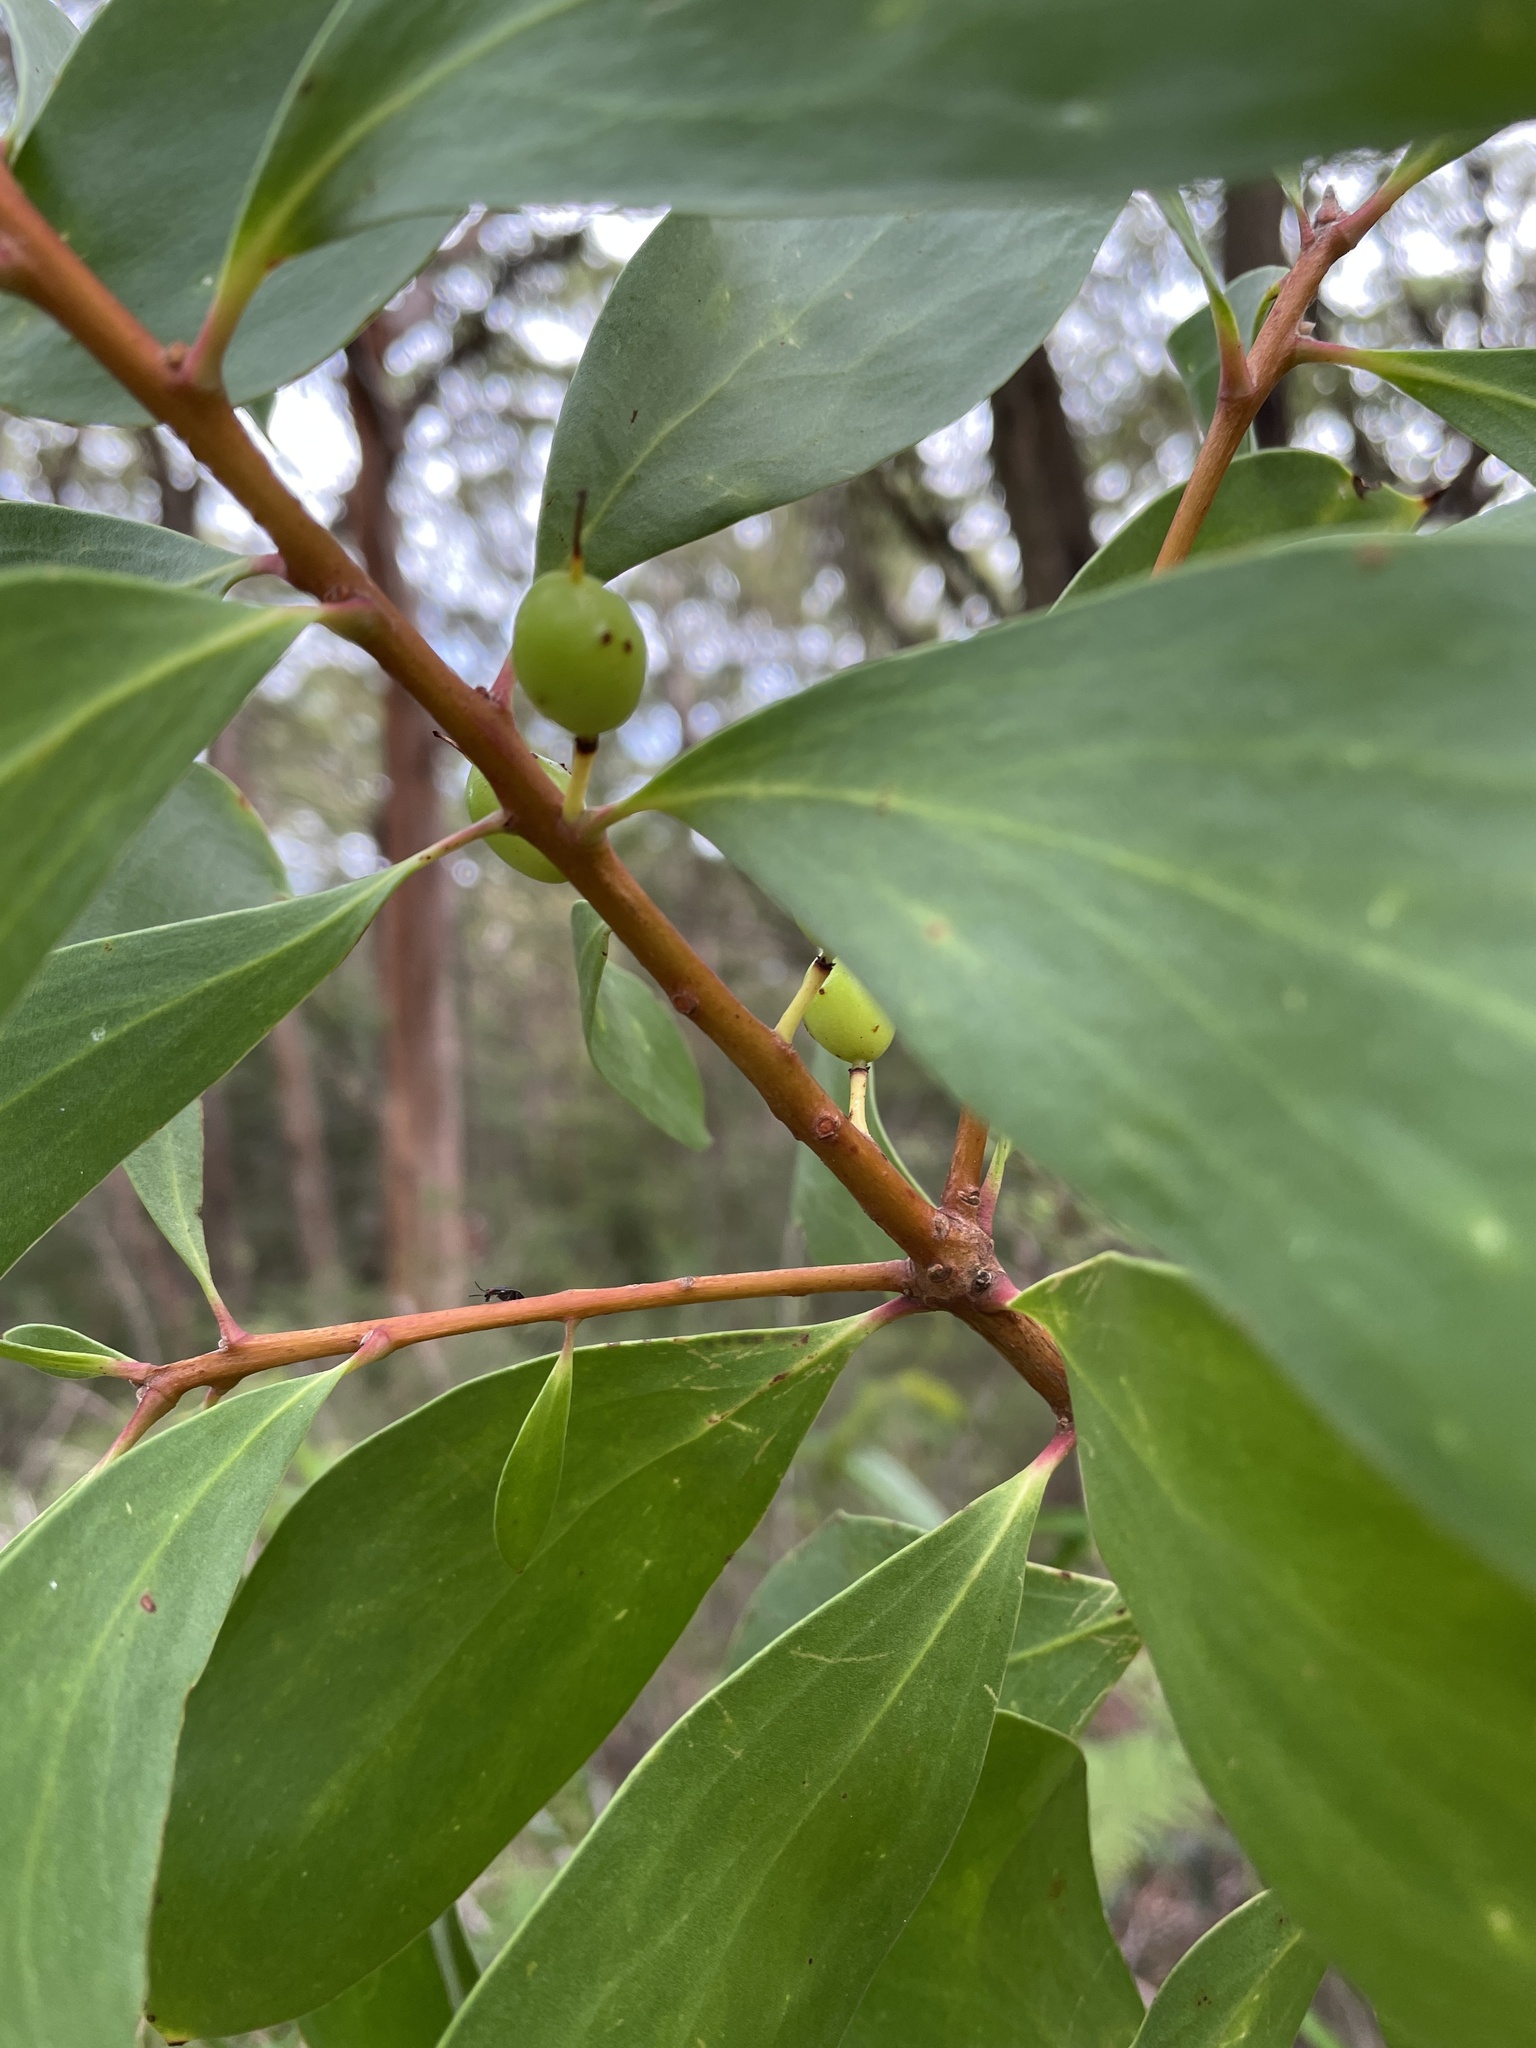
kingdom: Plantae
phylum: Tracheophyta
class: Magnoliopsida
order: Proteales
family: Proteaceae
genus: Persoonia
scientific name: Persoonia levis
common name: Smooth geebung
